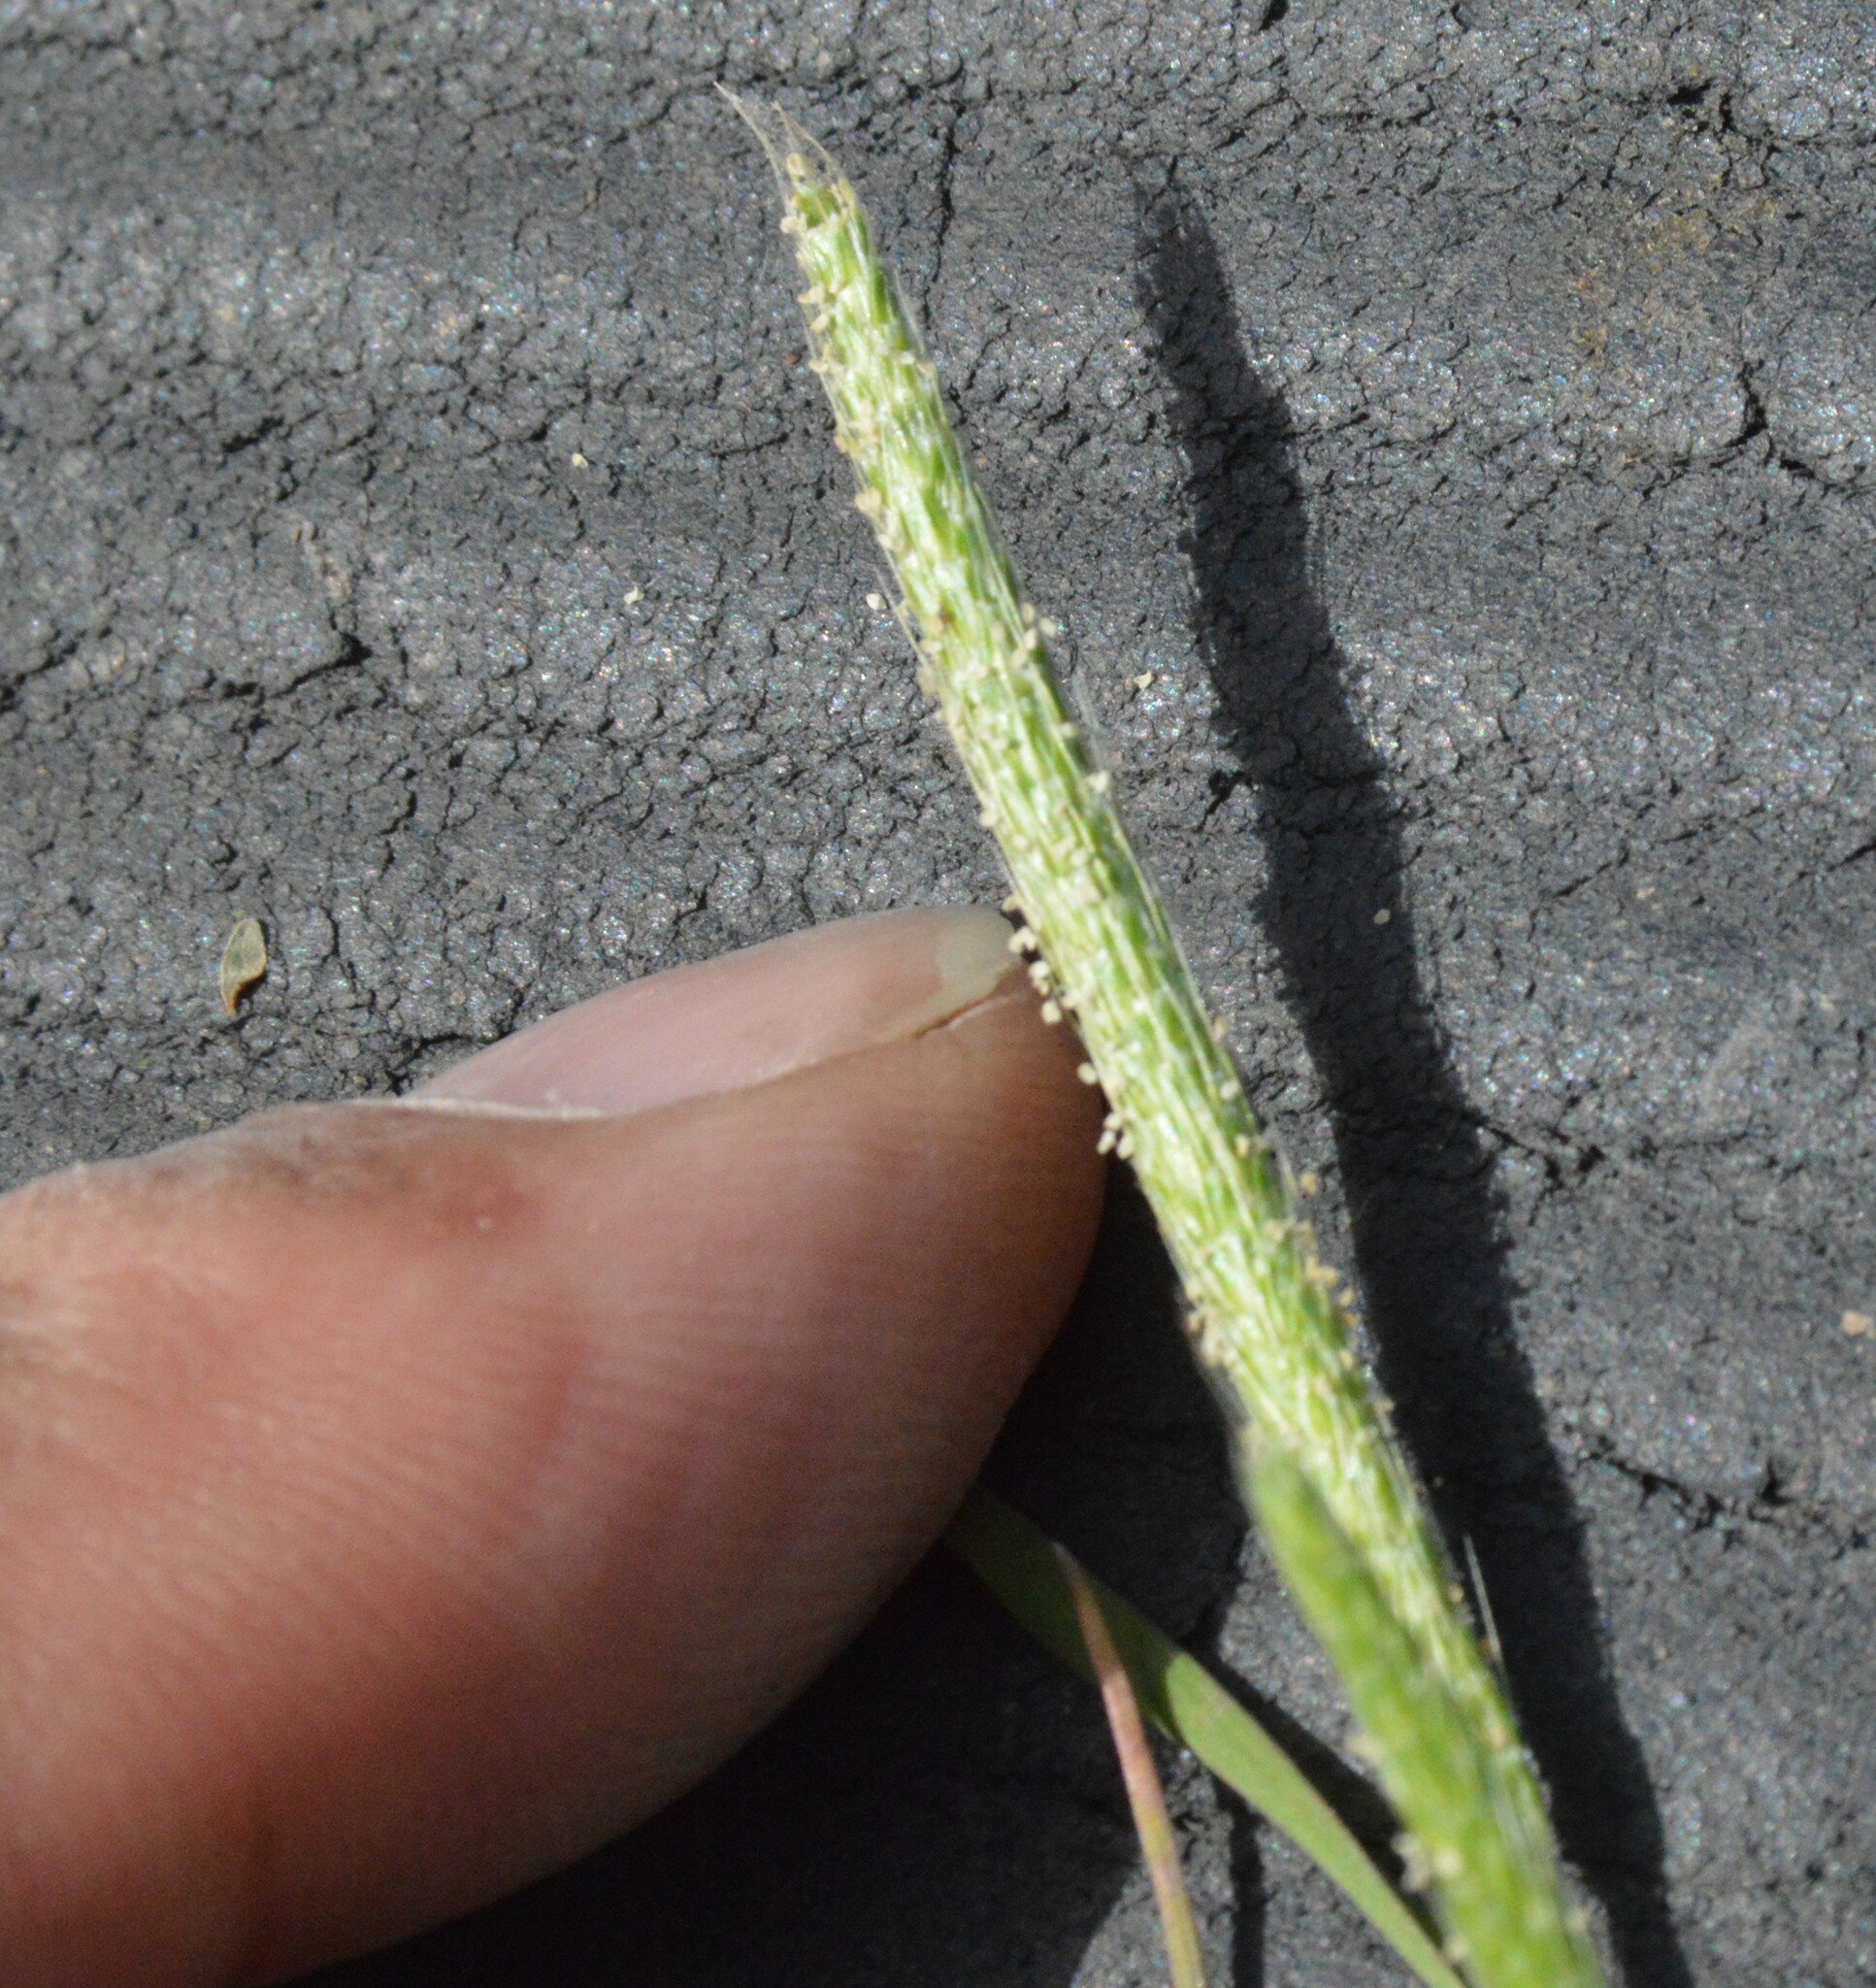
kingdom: Plantae
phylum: Tracheophyta
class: Liliopsida
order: Poales
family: Poaceae
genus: Alopecurus
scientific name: Alopecurus carolinianus
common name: Tufted foxtail
